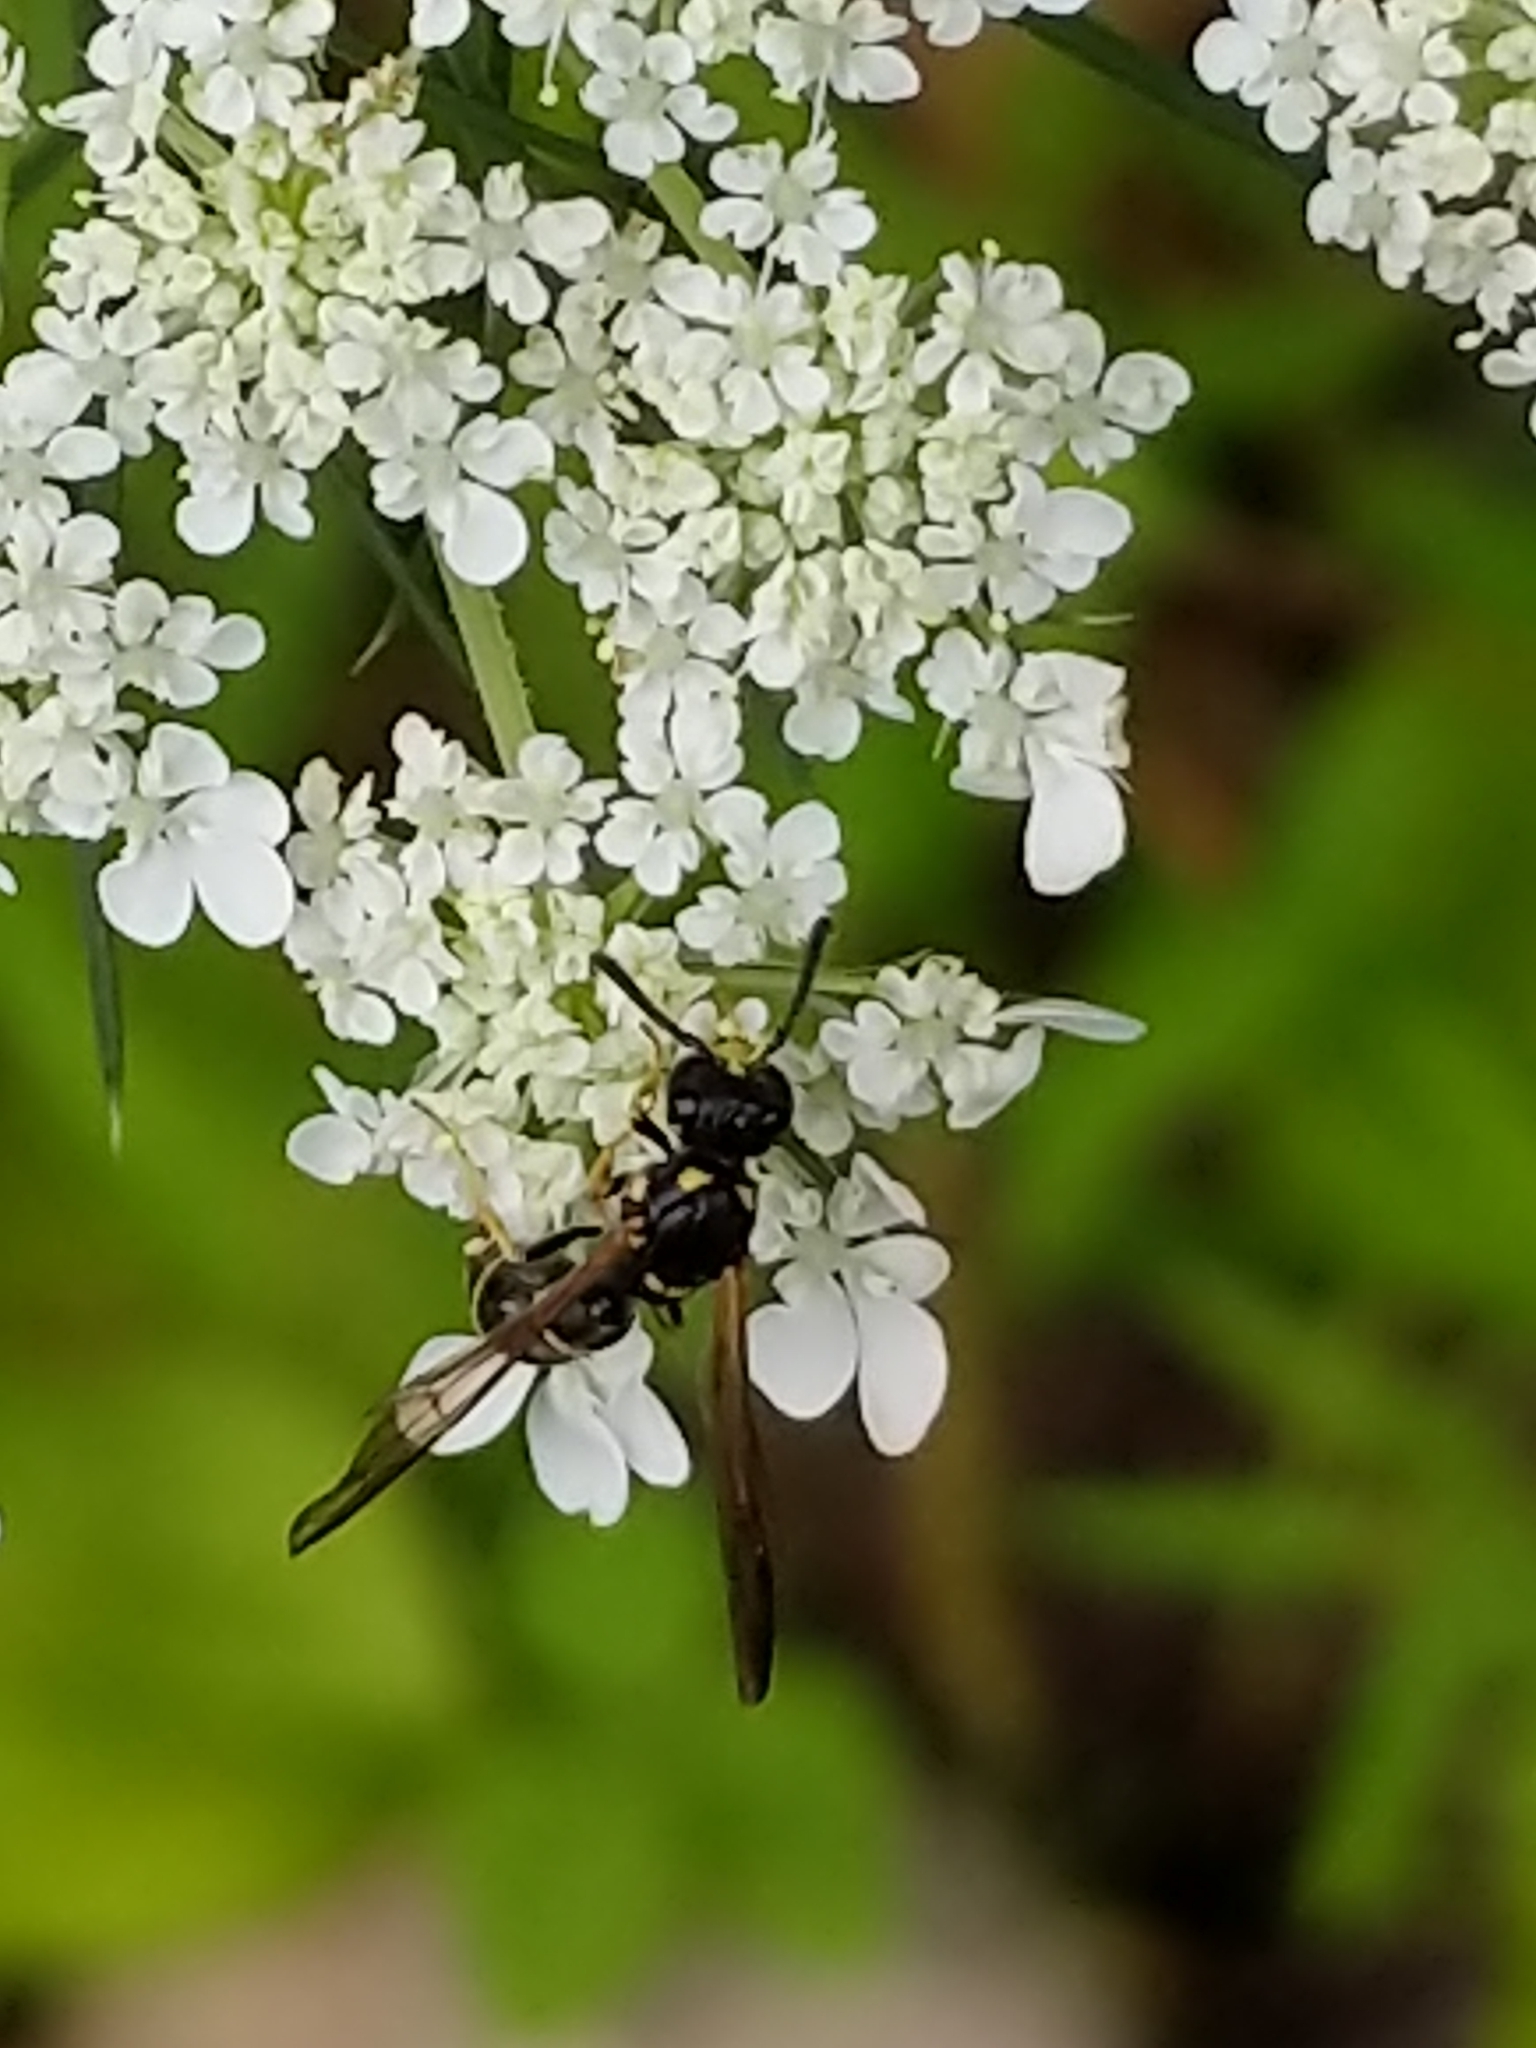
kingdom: Animalia
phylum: Arthropoda
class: Insecta
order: Hymenoptera
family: Eumenidae
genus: Symmorphus
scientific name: Symmorphus
